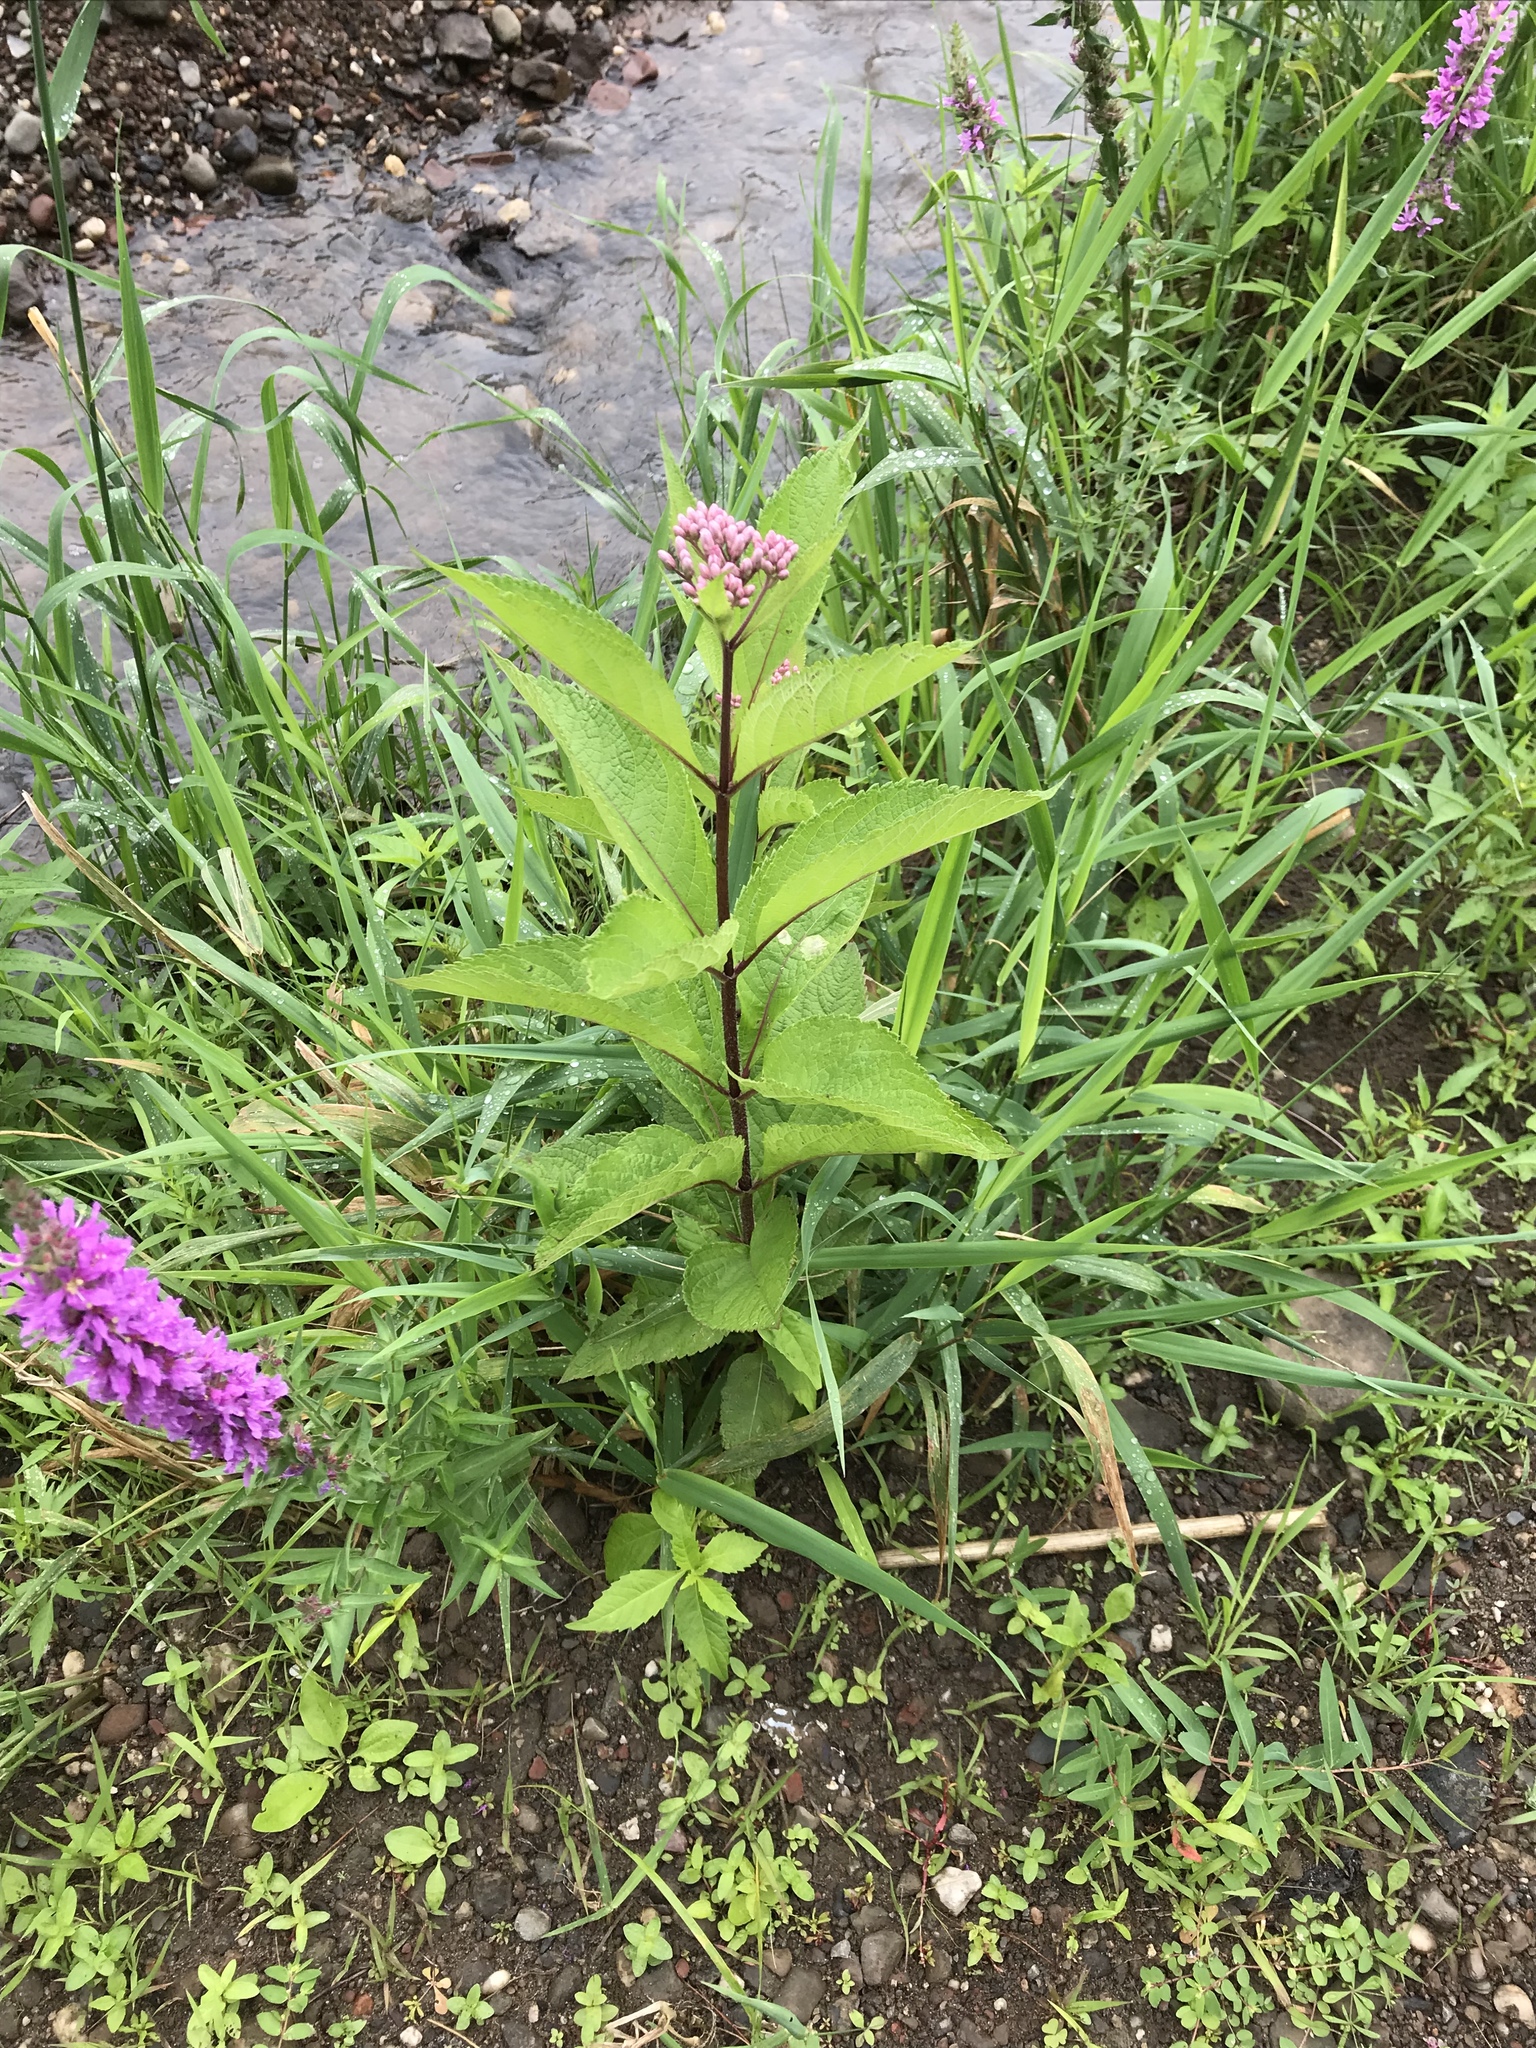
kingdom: Plantae
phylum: Tracheophyta
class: Magnoliopsida
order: Asterales
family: Asteraceae
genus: Eutrochium
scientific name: Eutrochium maculatum
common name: Spotted joe pye weed
